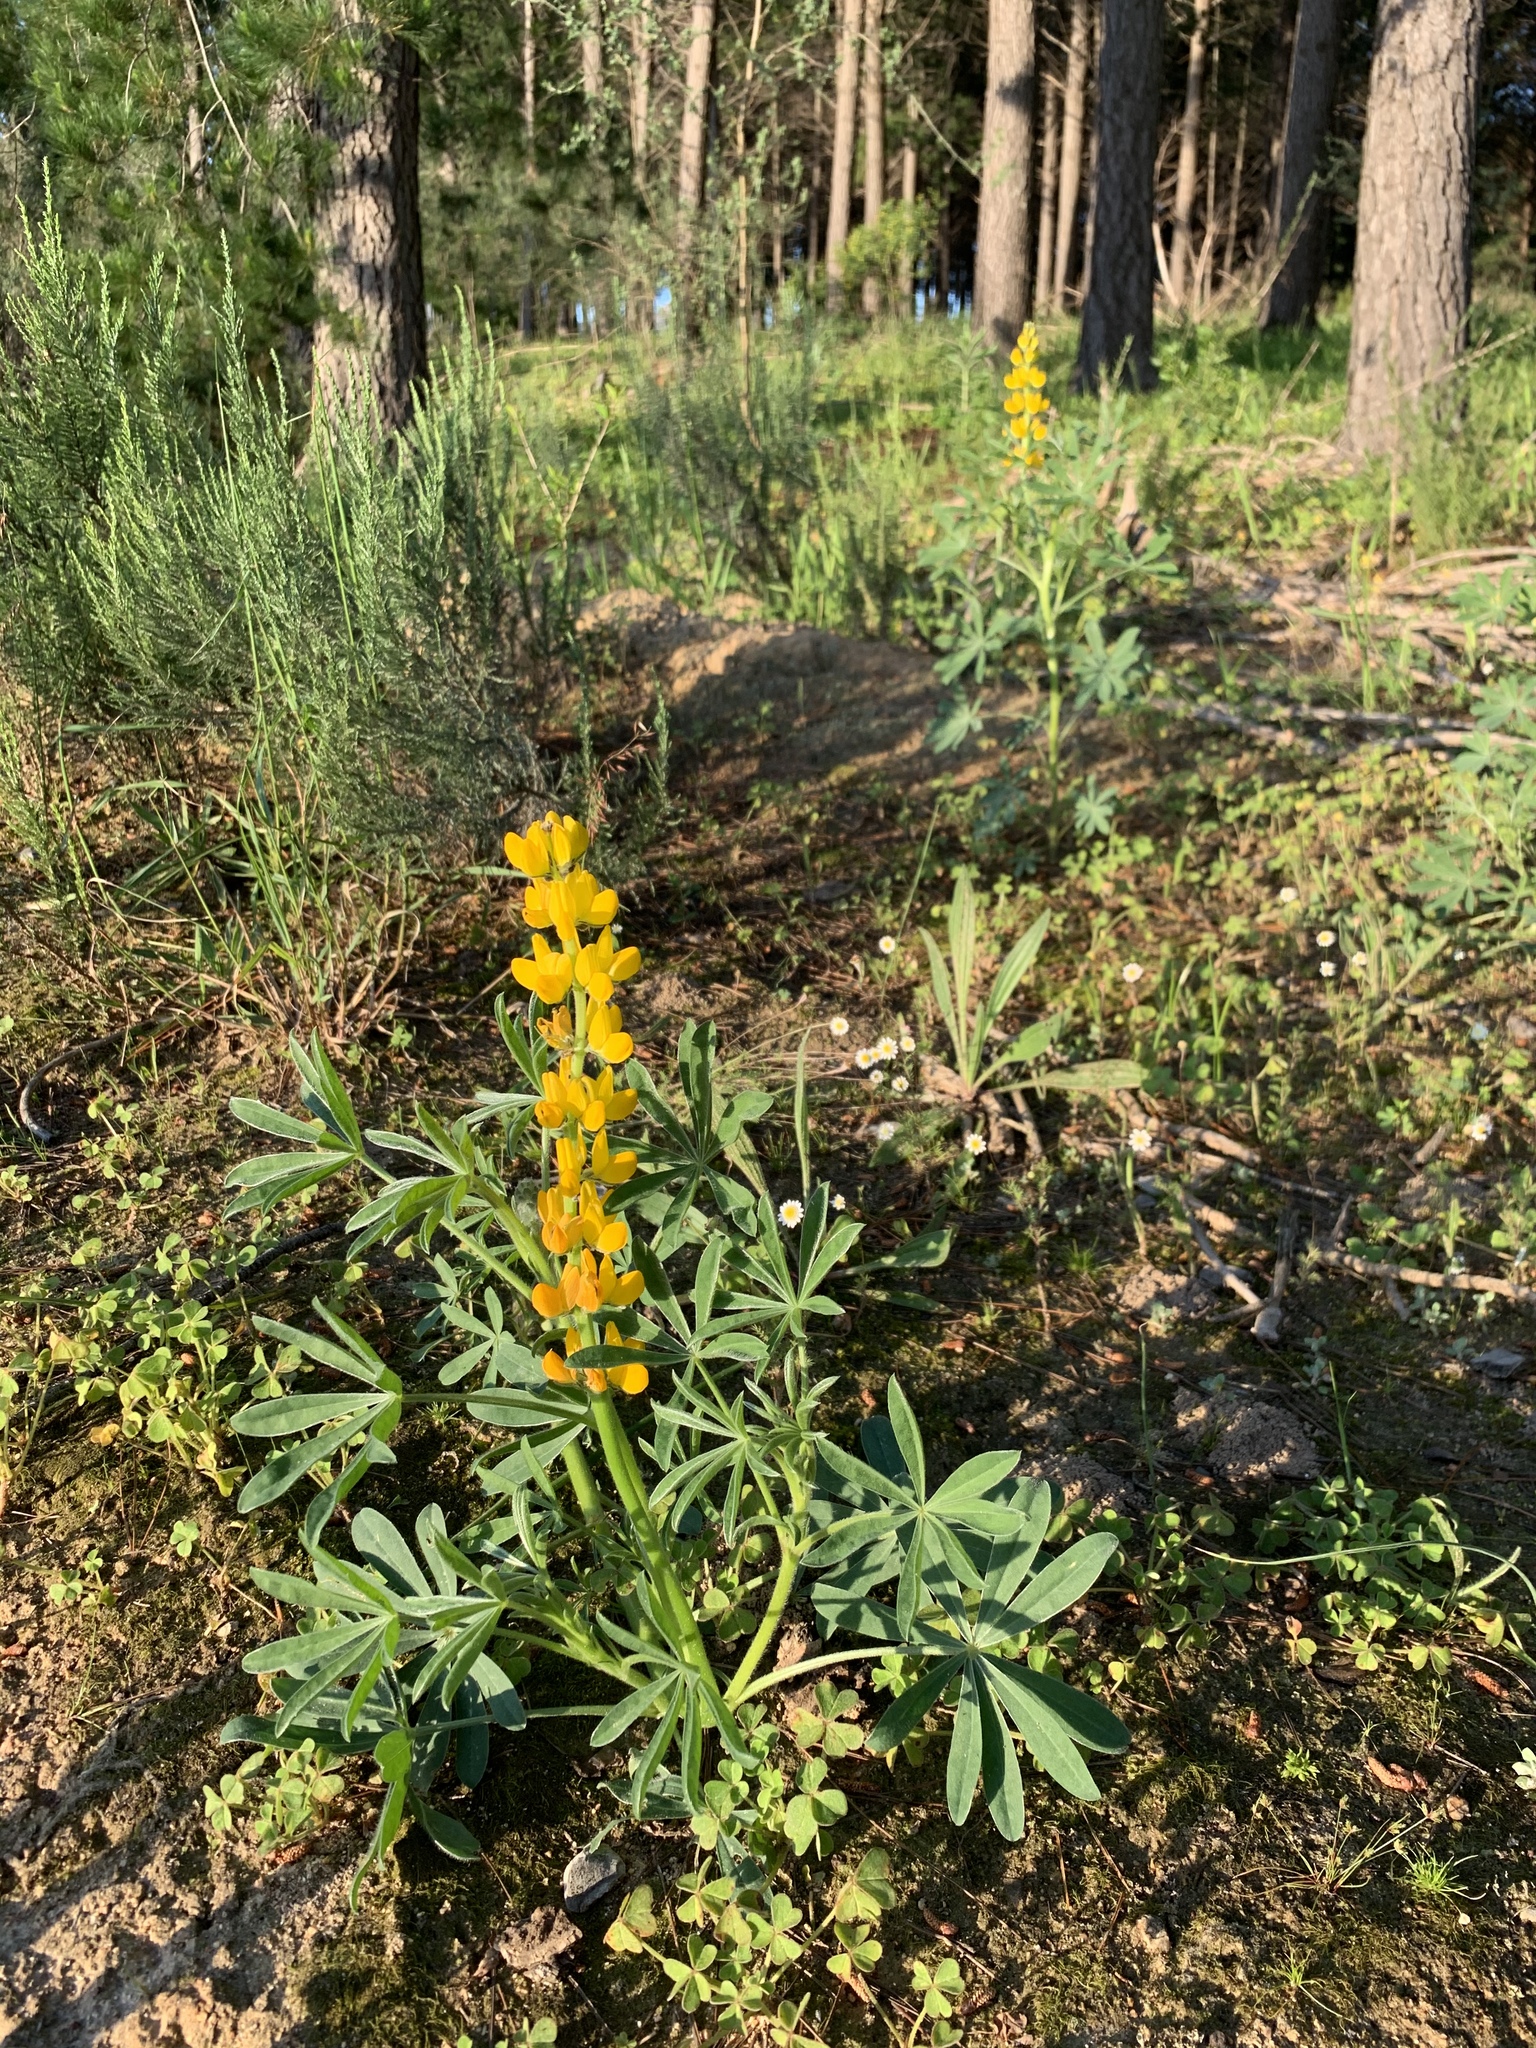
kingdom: Plantae
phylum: Tracheophyta
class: Magnoliopsida
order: Fabales
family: Fabaceae
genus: Lupinus
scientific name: Lupinus luteus
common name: European yellow lupine
